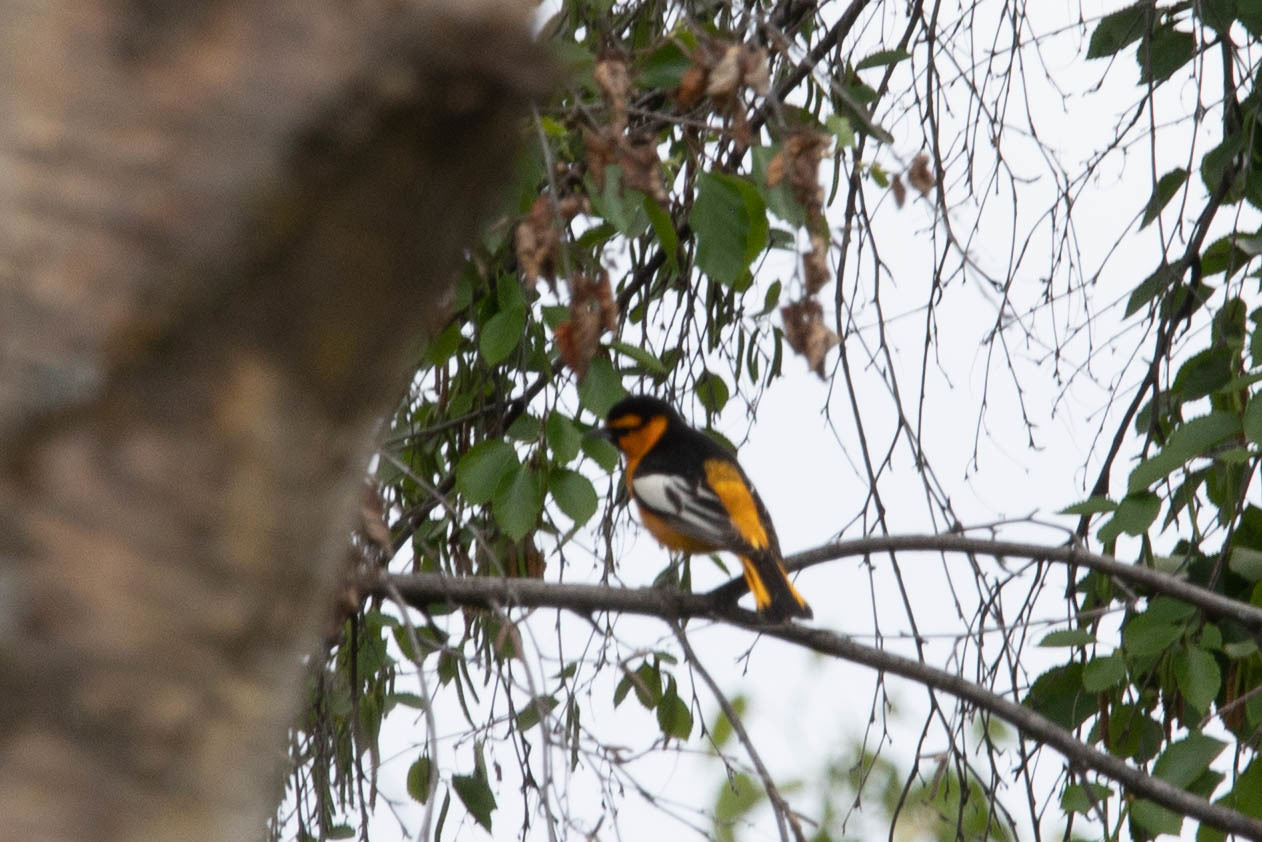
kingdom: Animalia
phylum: Chordata
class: Aves
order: Passeriformes
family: Icteridae
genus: Icterus
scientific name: Icterus bullockii
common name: Bullock's oriole
